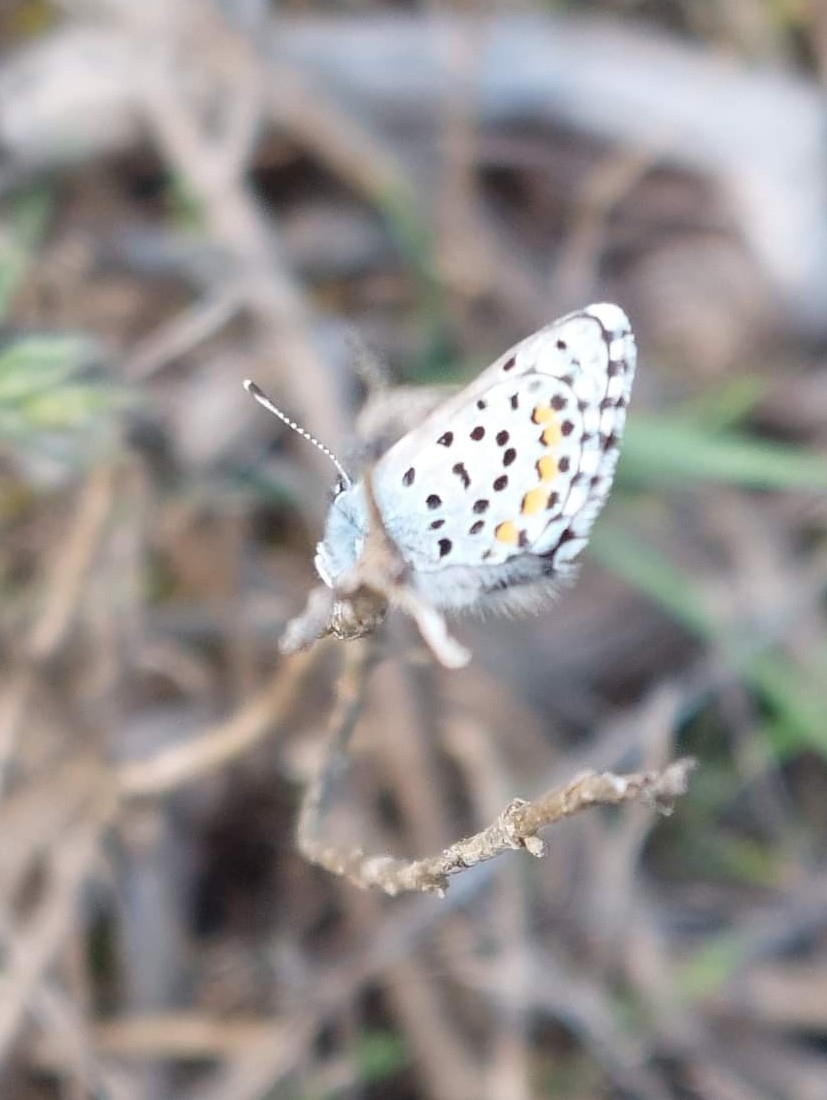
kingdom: Animalia
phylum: Arthropoda
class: Insecta
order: Lepidoptera
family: Lycaenidae
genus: Pseudophilotes
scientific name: Pseudophilotes baton
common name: Baton blue
